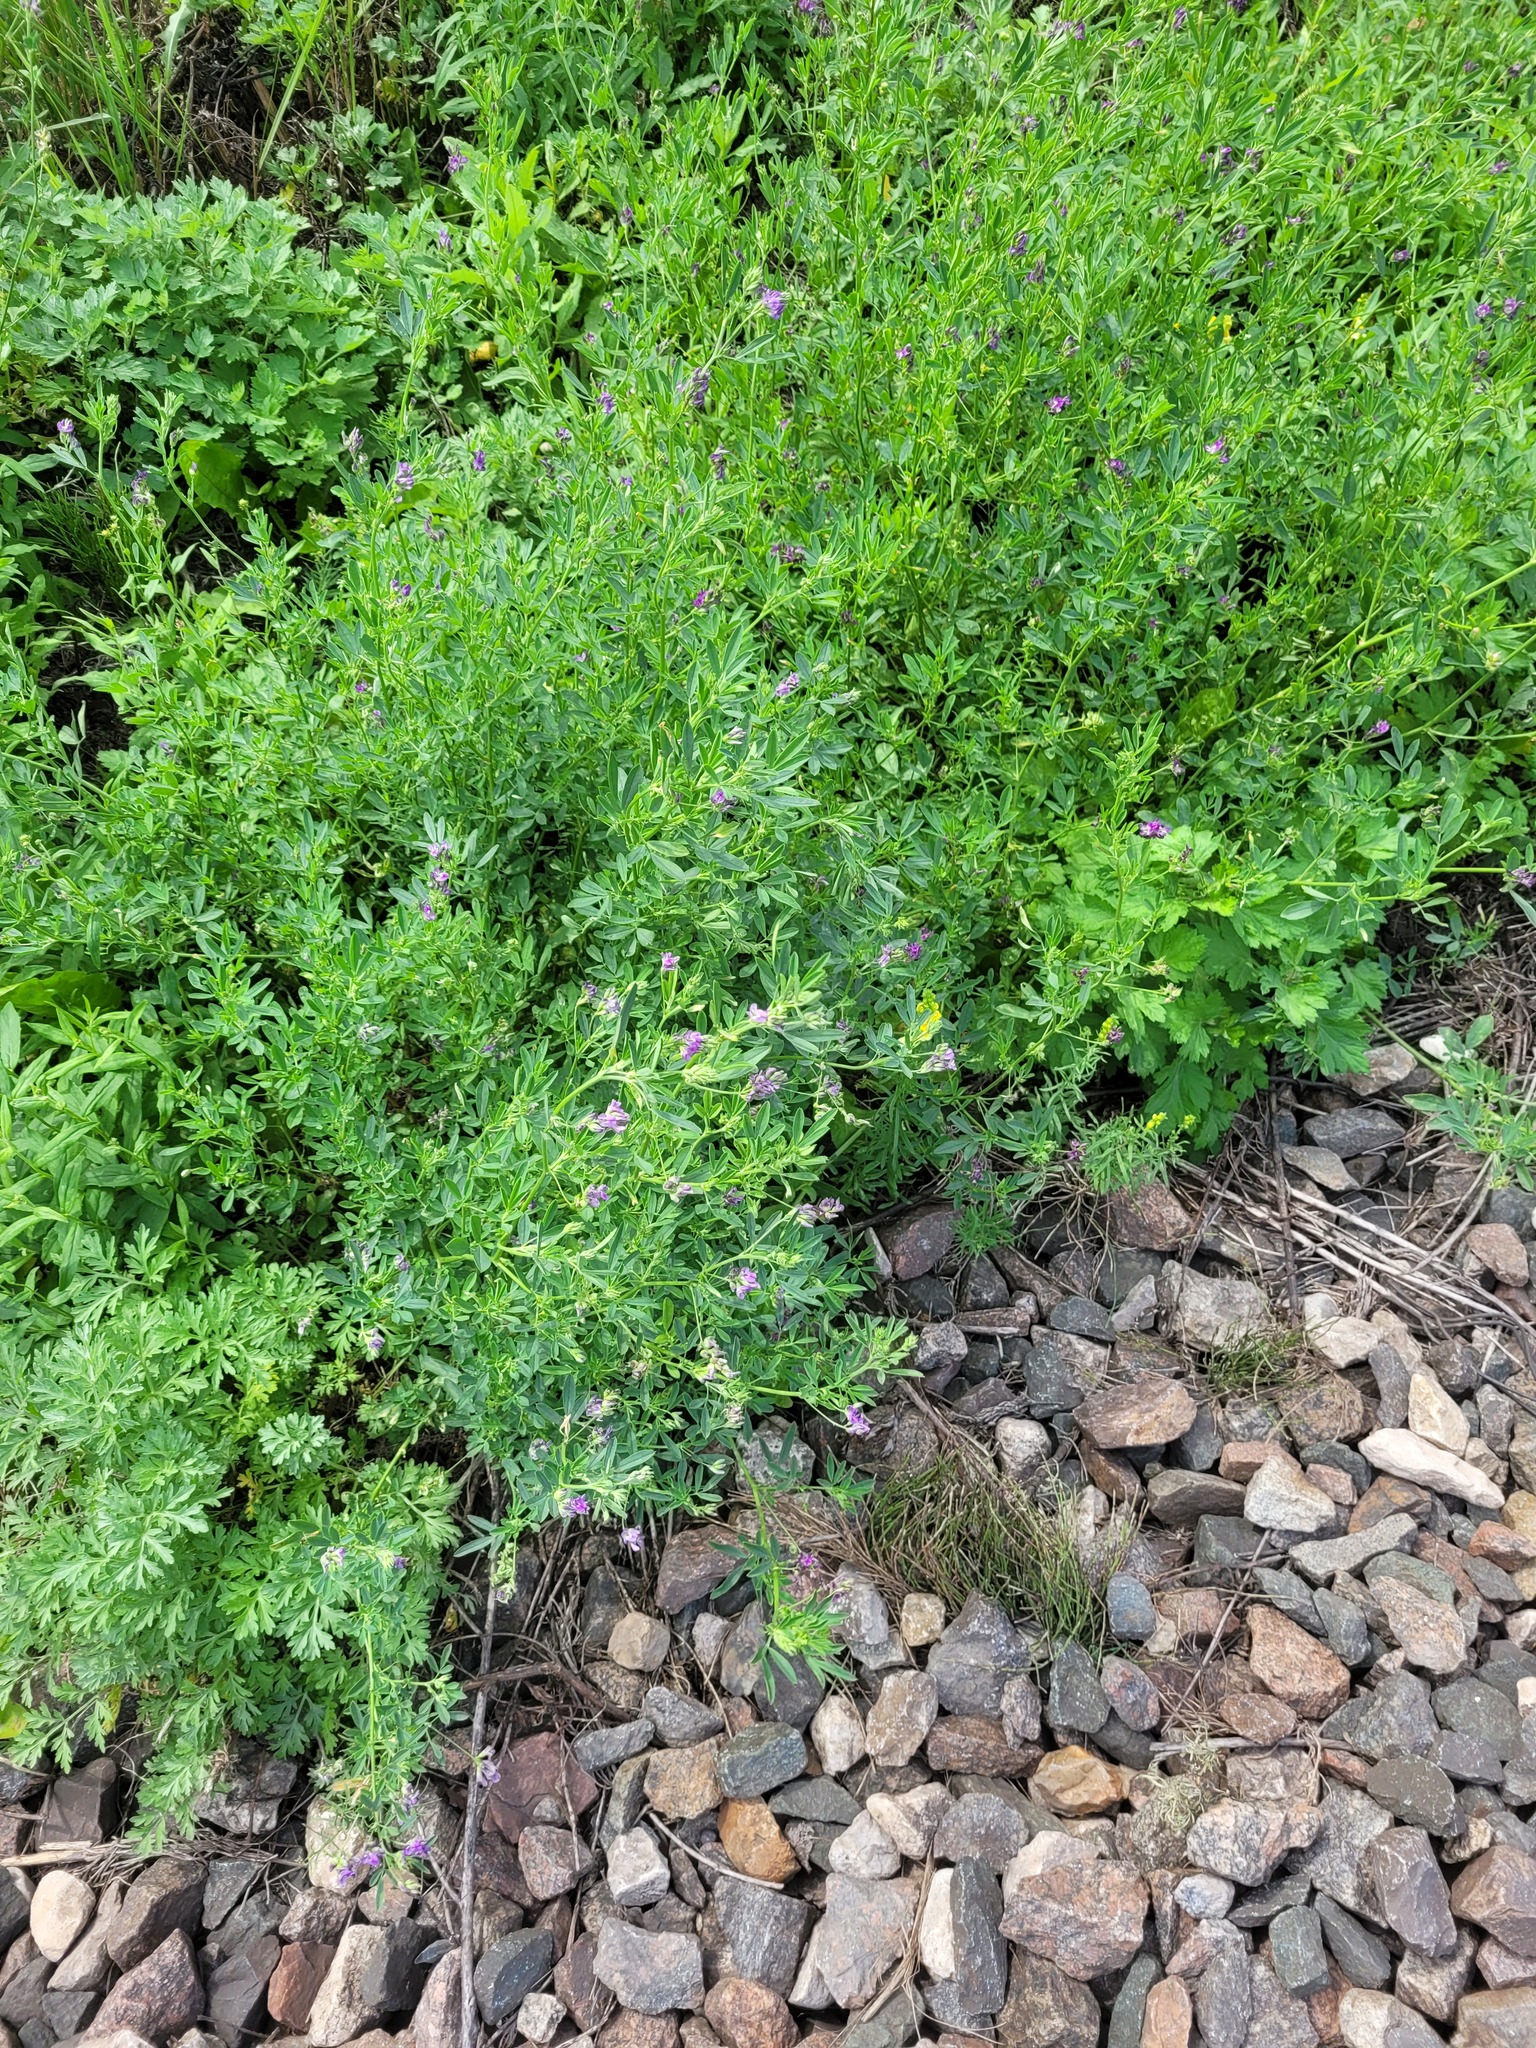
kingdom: Plantae
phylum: Tracheophyta
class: Magnoliopsida
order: Fabales
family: Fabaceae
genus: Medicago
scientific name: Medicago sativa
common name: Alfalfa
